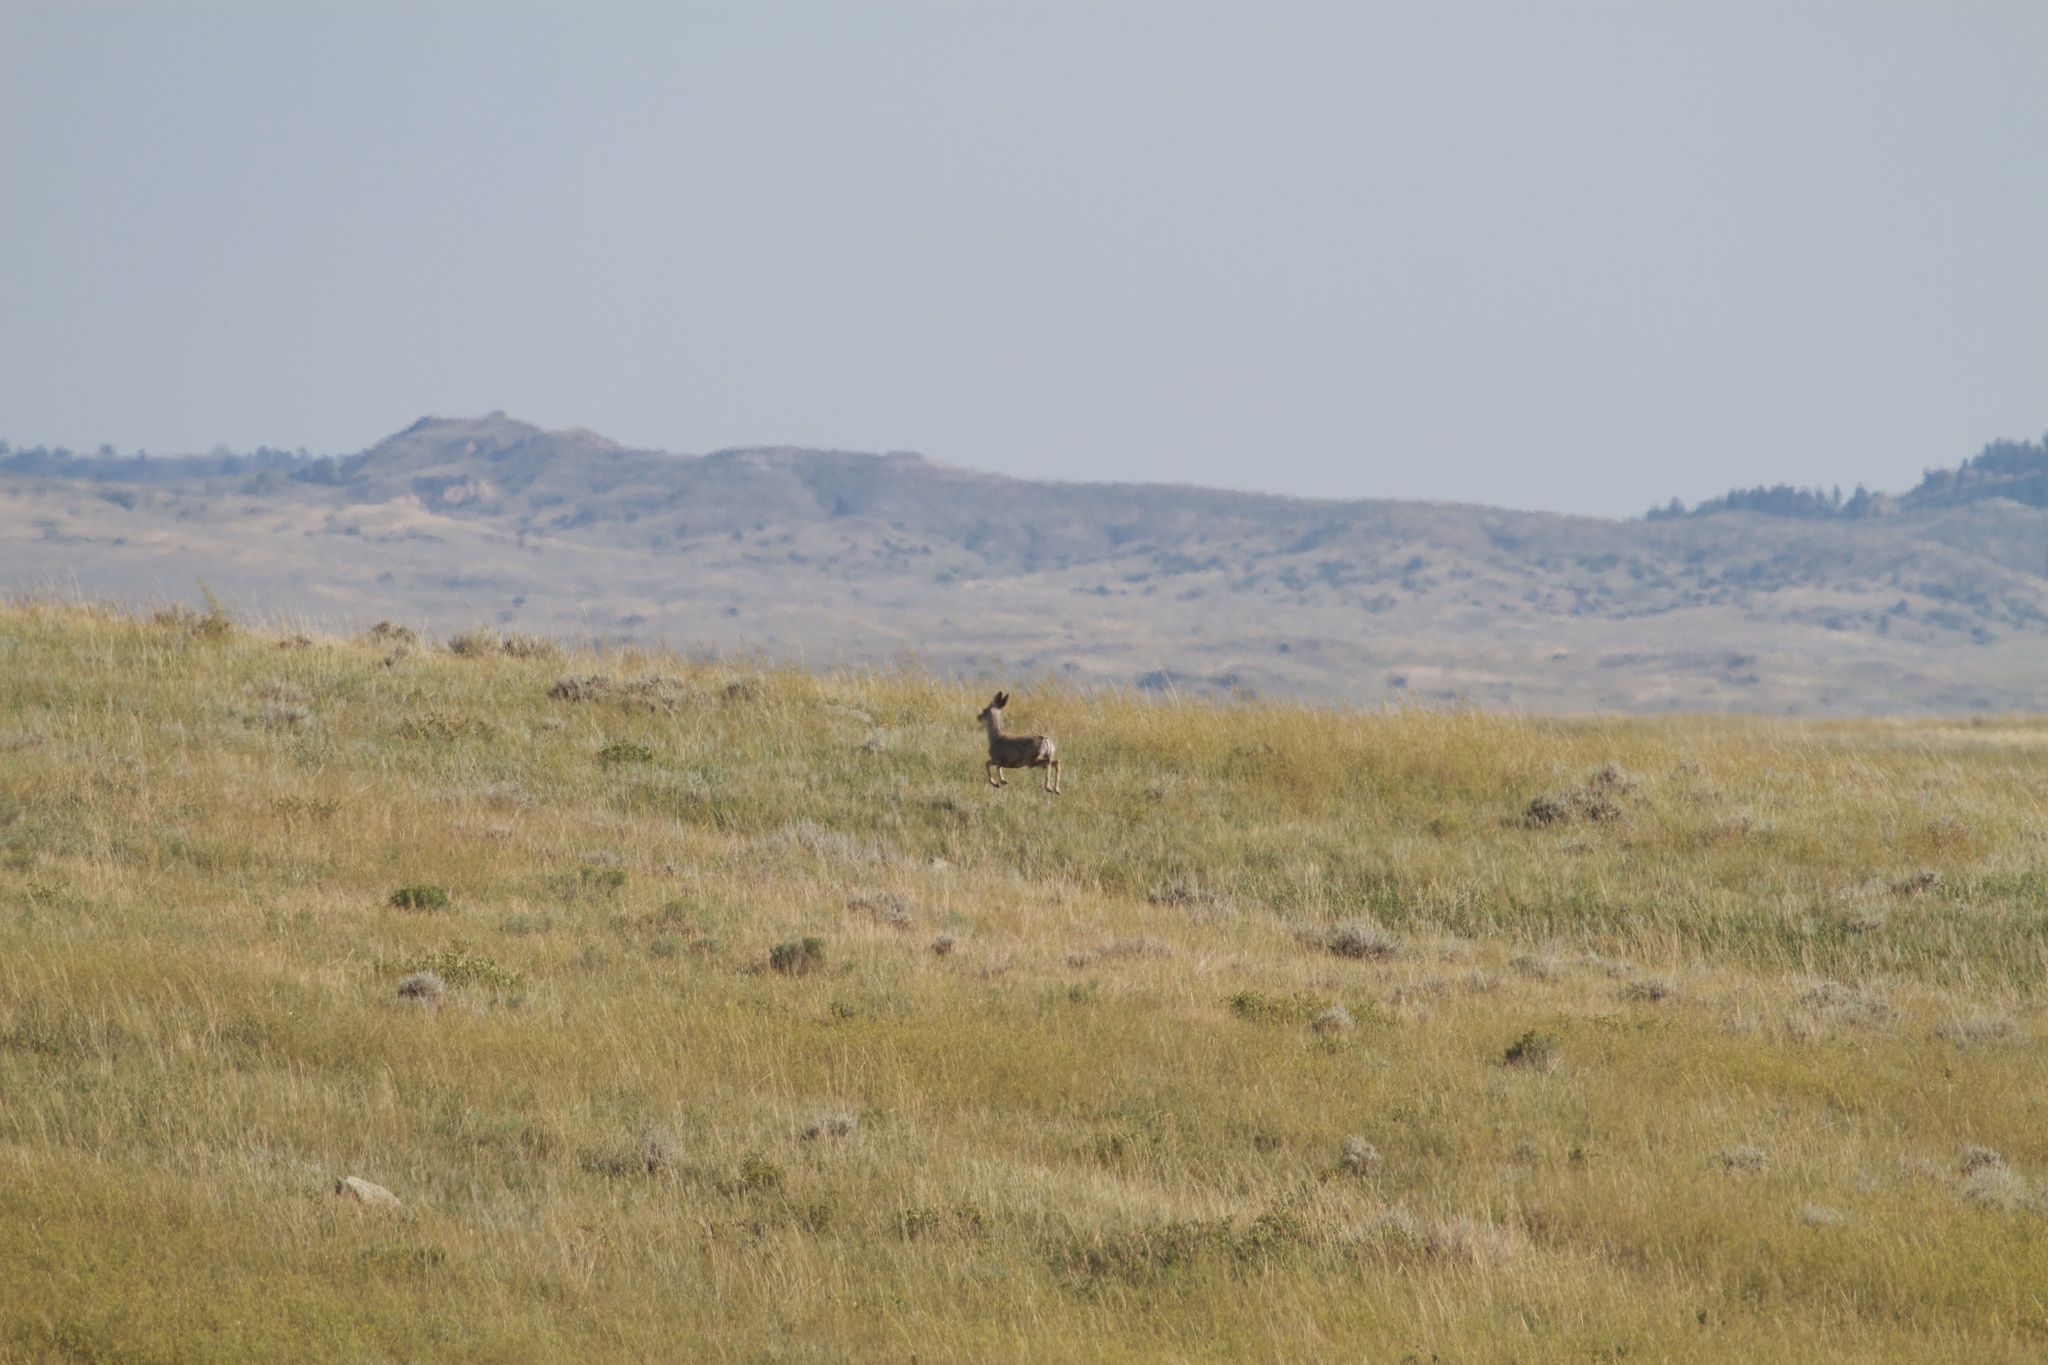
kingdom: Animalia
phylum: Chordata
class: Mammalia
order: Artiodactyla
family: Cervidae
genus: Odocoileus
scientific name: Odocoileus hemionus
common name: Mule deer
